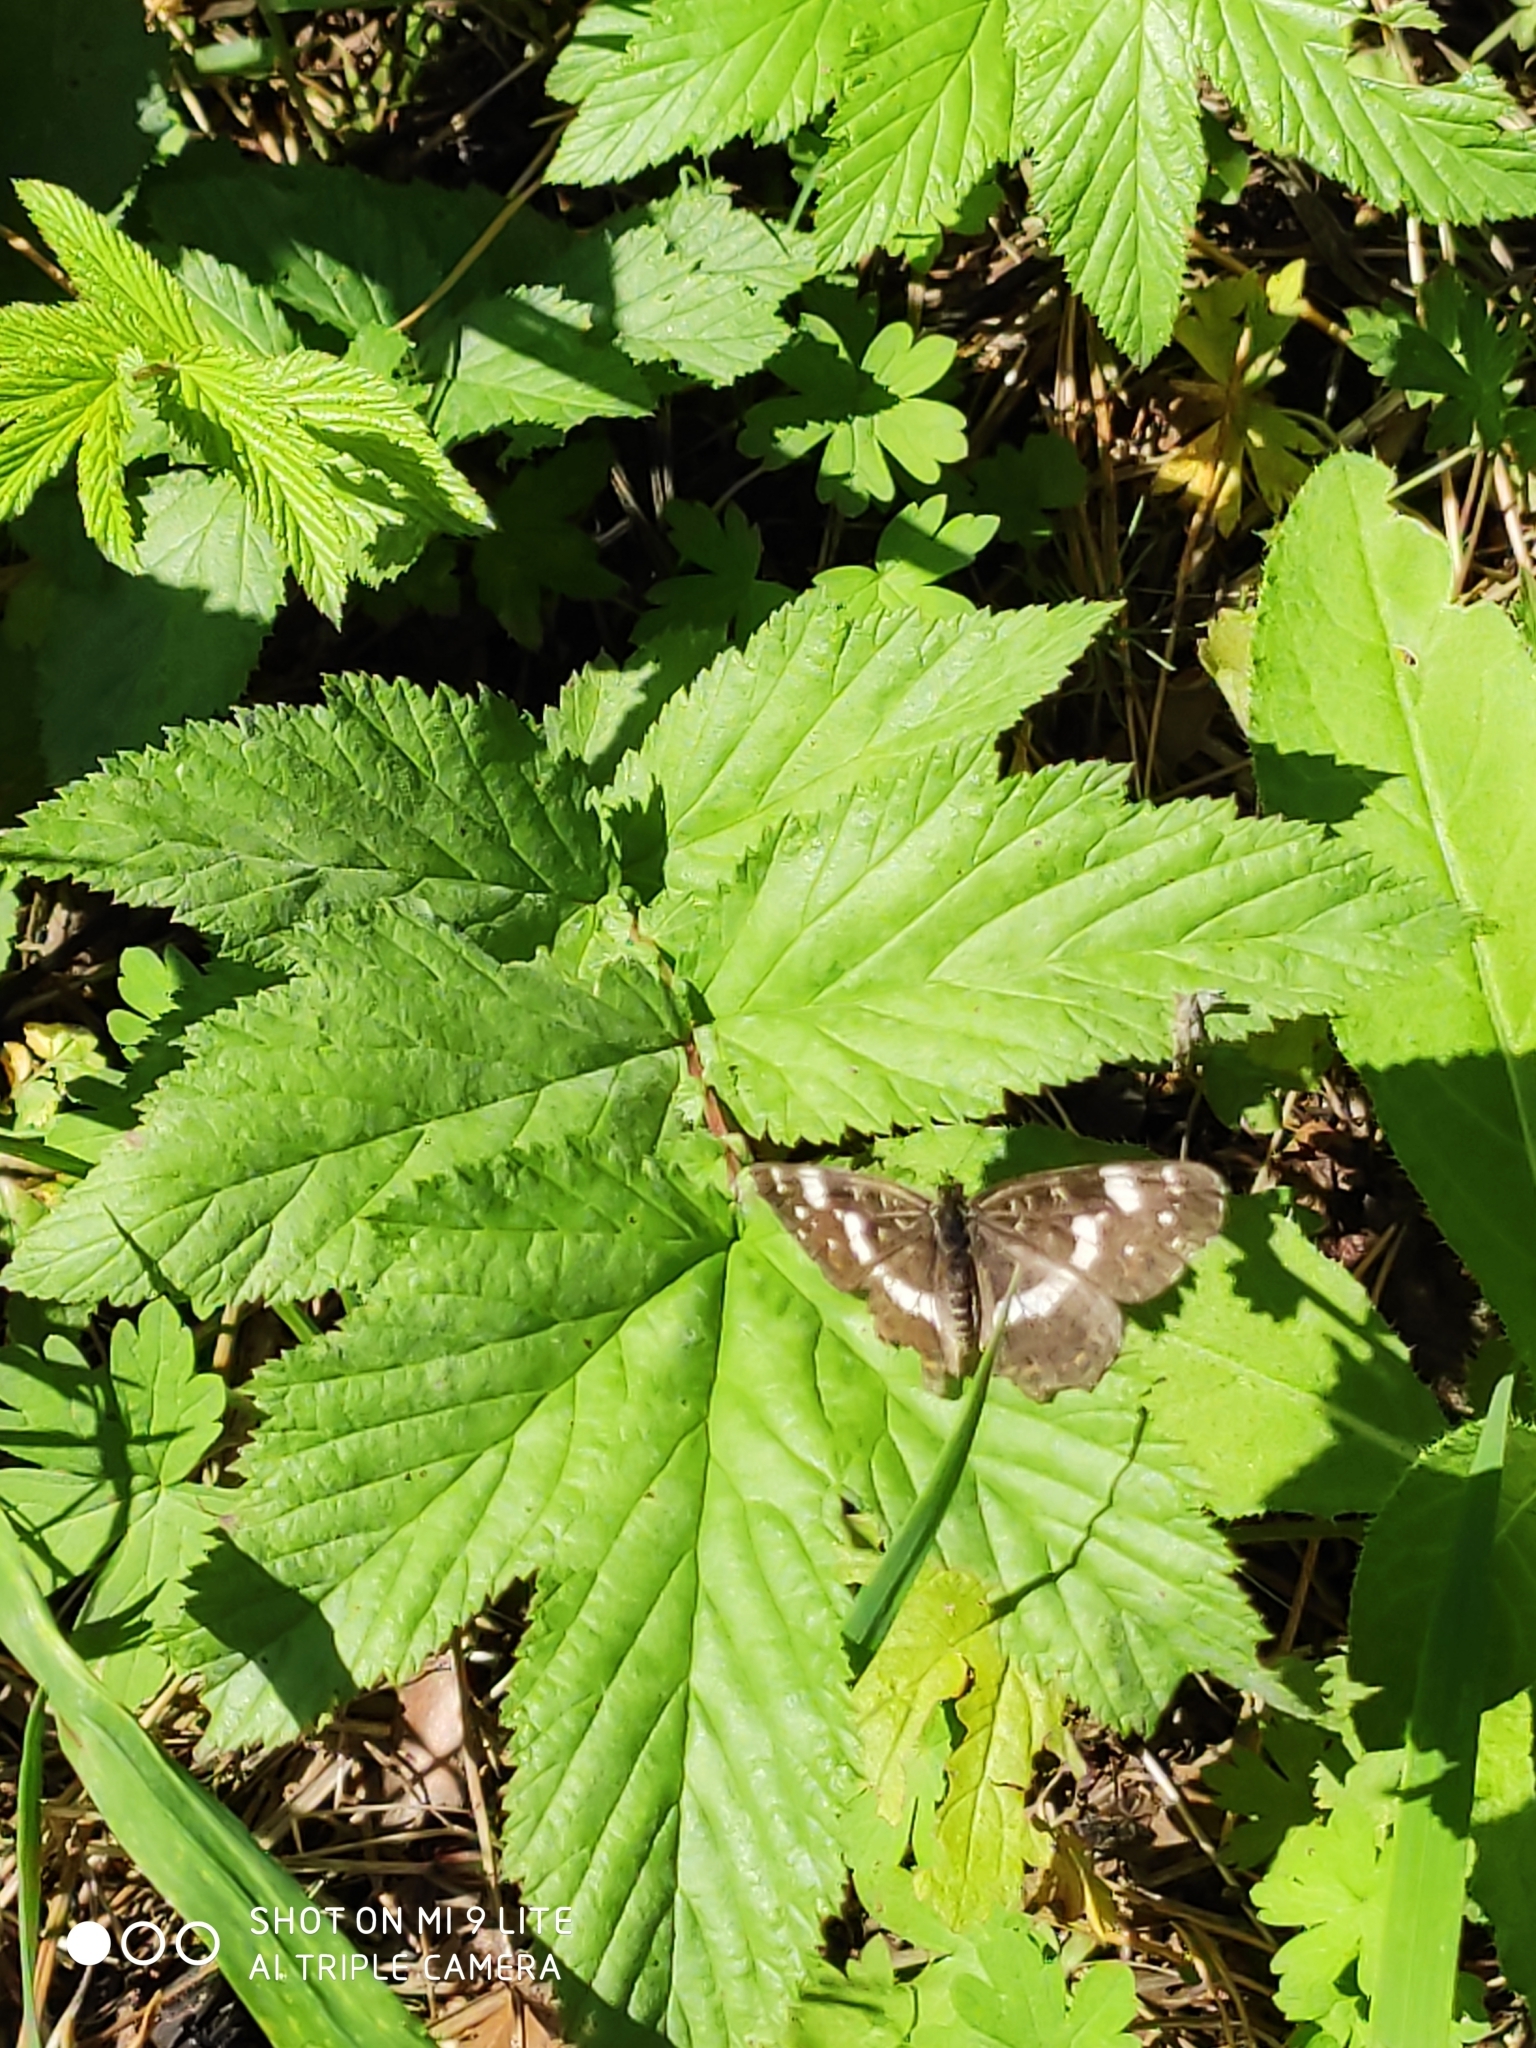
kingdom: Animalia
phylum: Arthropoda
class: Insecta
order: Lepidoptera
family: Nymphalidae
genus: Araschnia
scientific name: Araschnia levana
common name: Map butterfly
